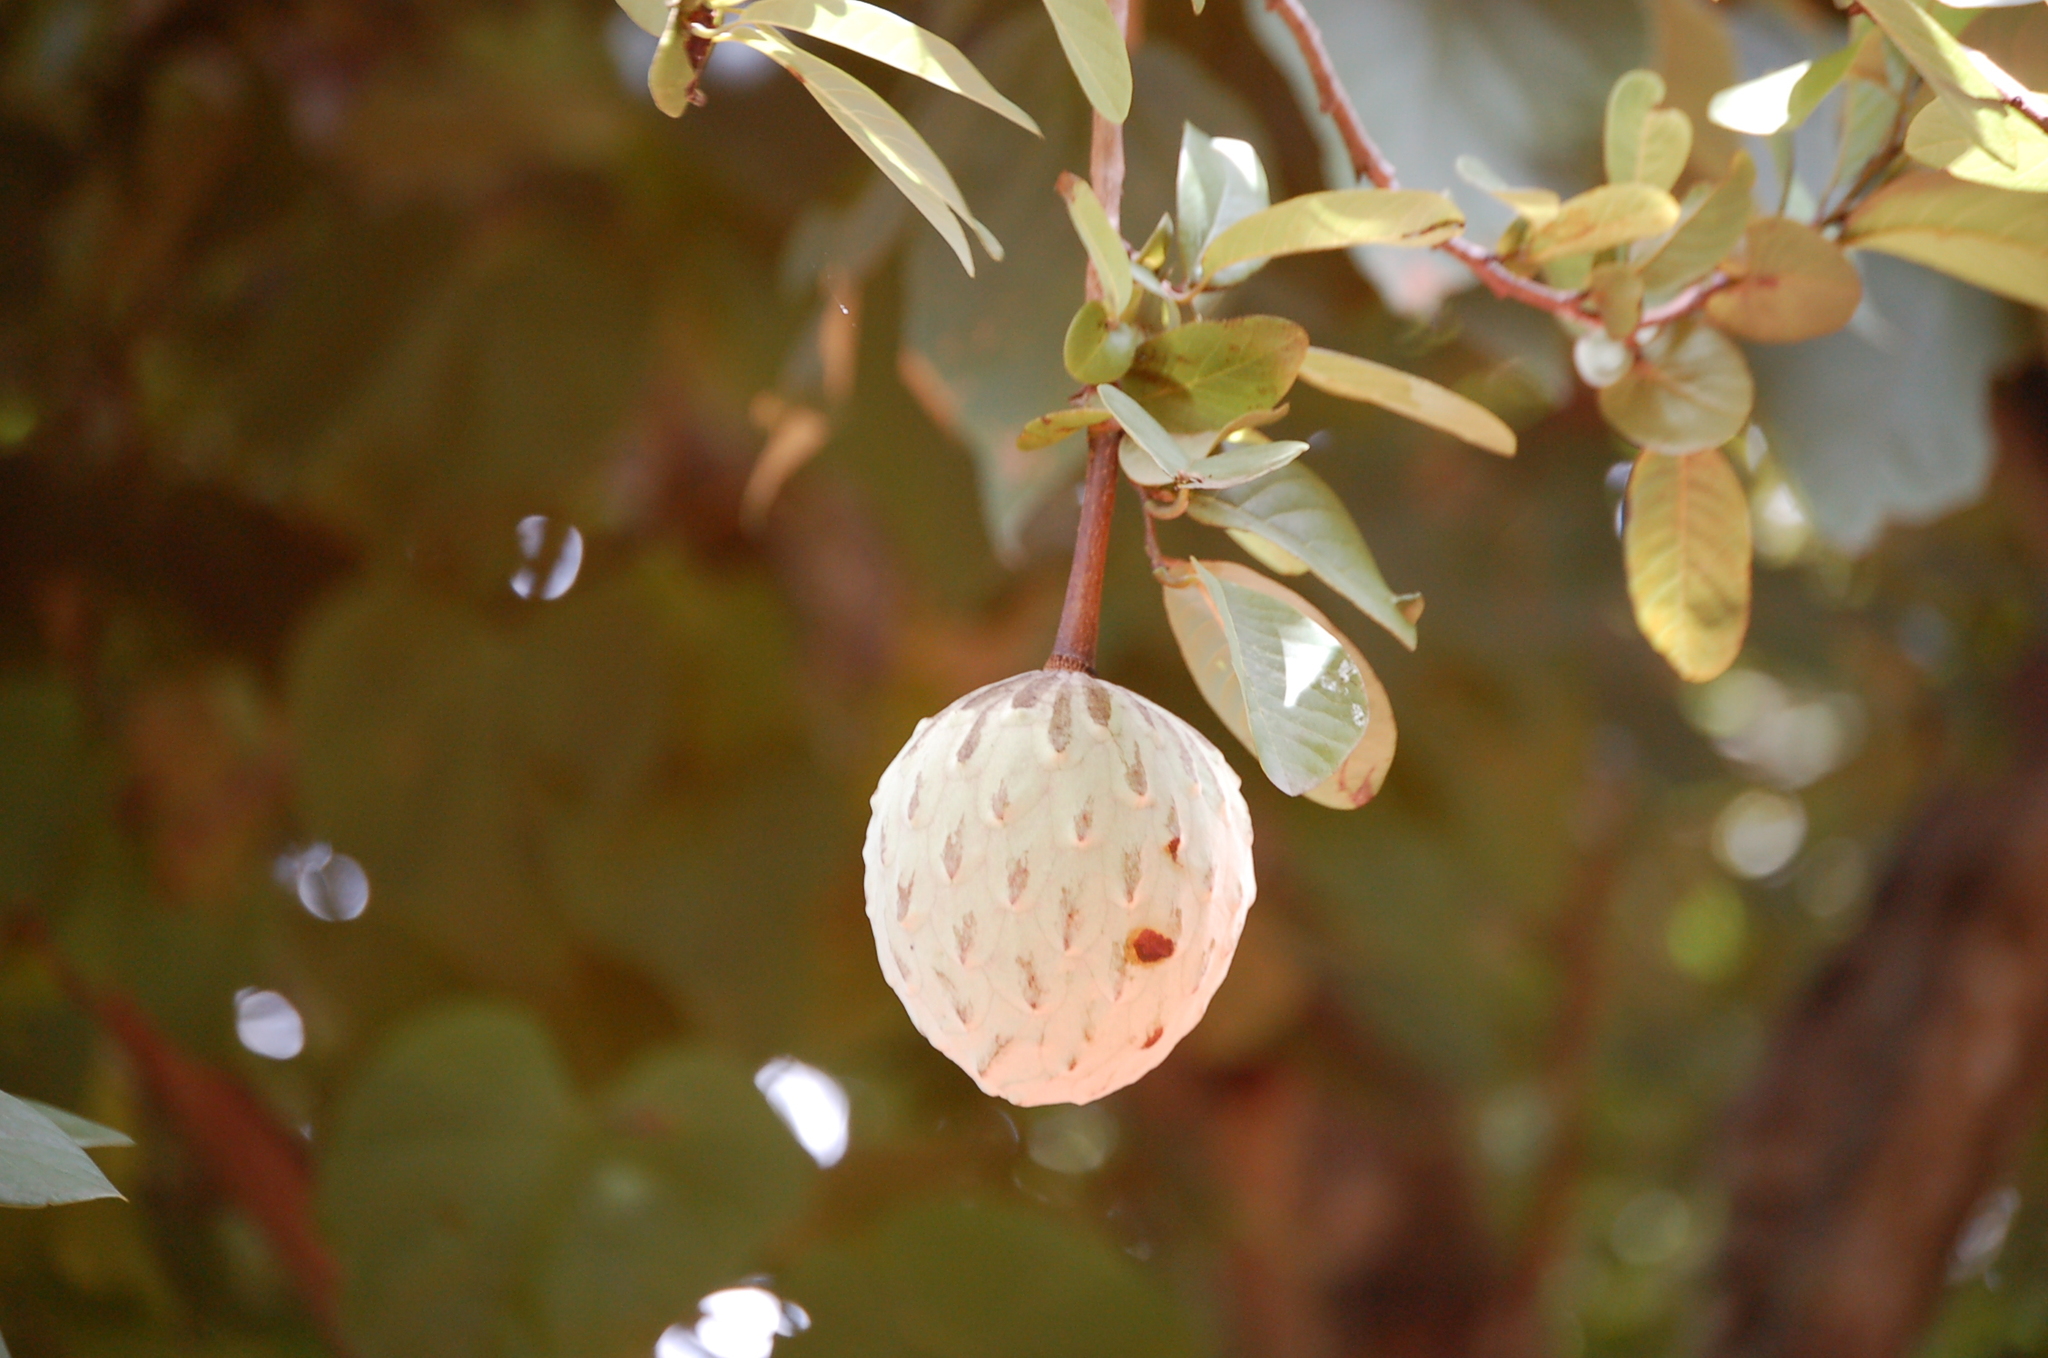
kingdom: Plantae
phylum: Tracheophyta
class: Magnoliopsida
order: Magnoliales
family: Annonaceae
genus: Annona
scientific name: Annona macroprophyllata
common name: Ilama
